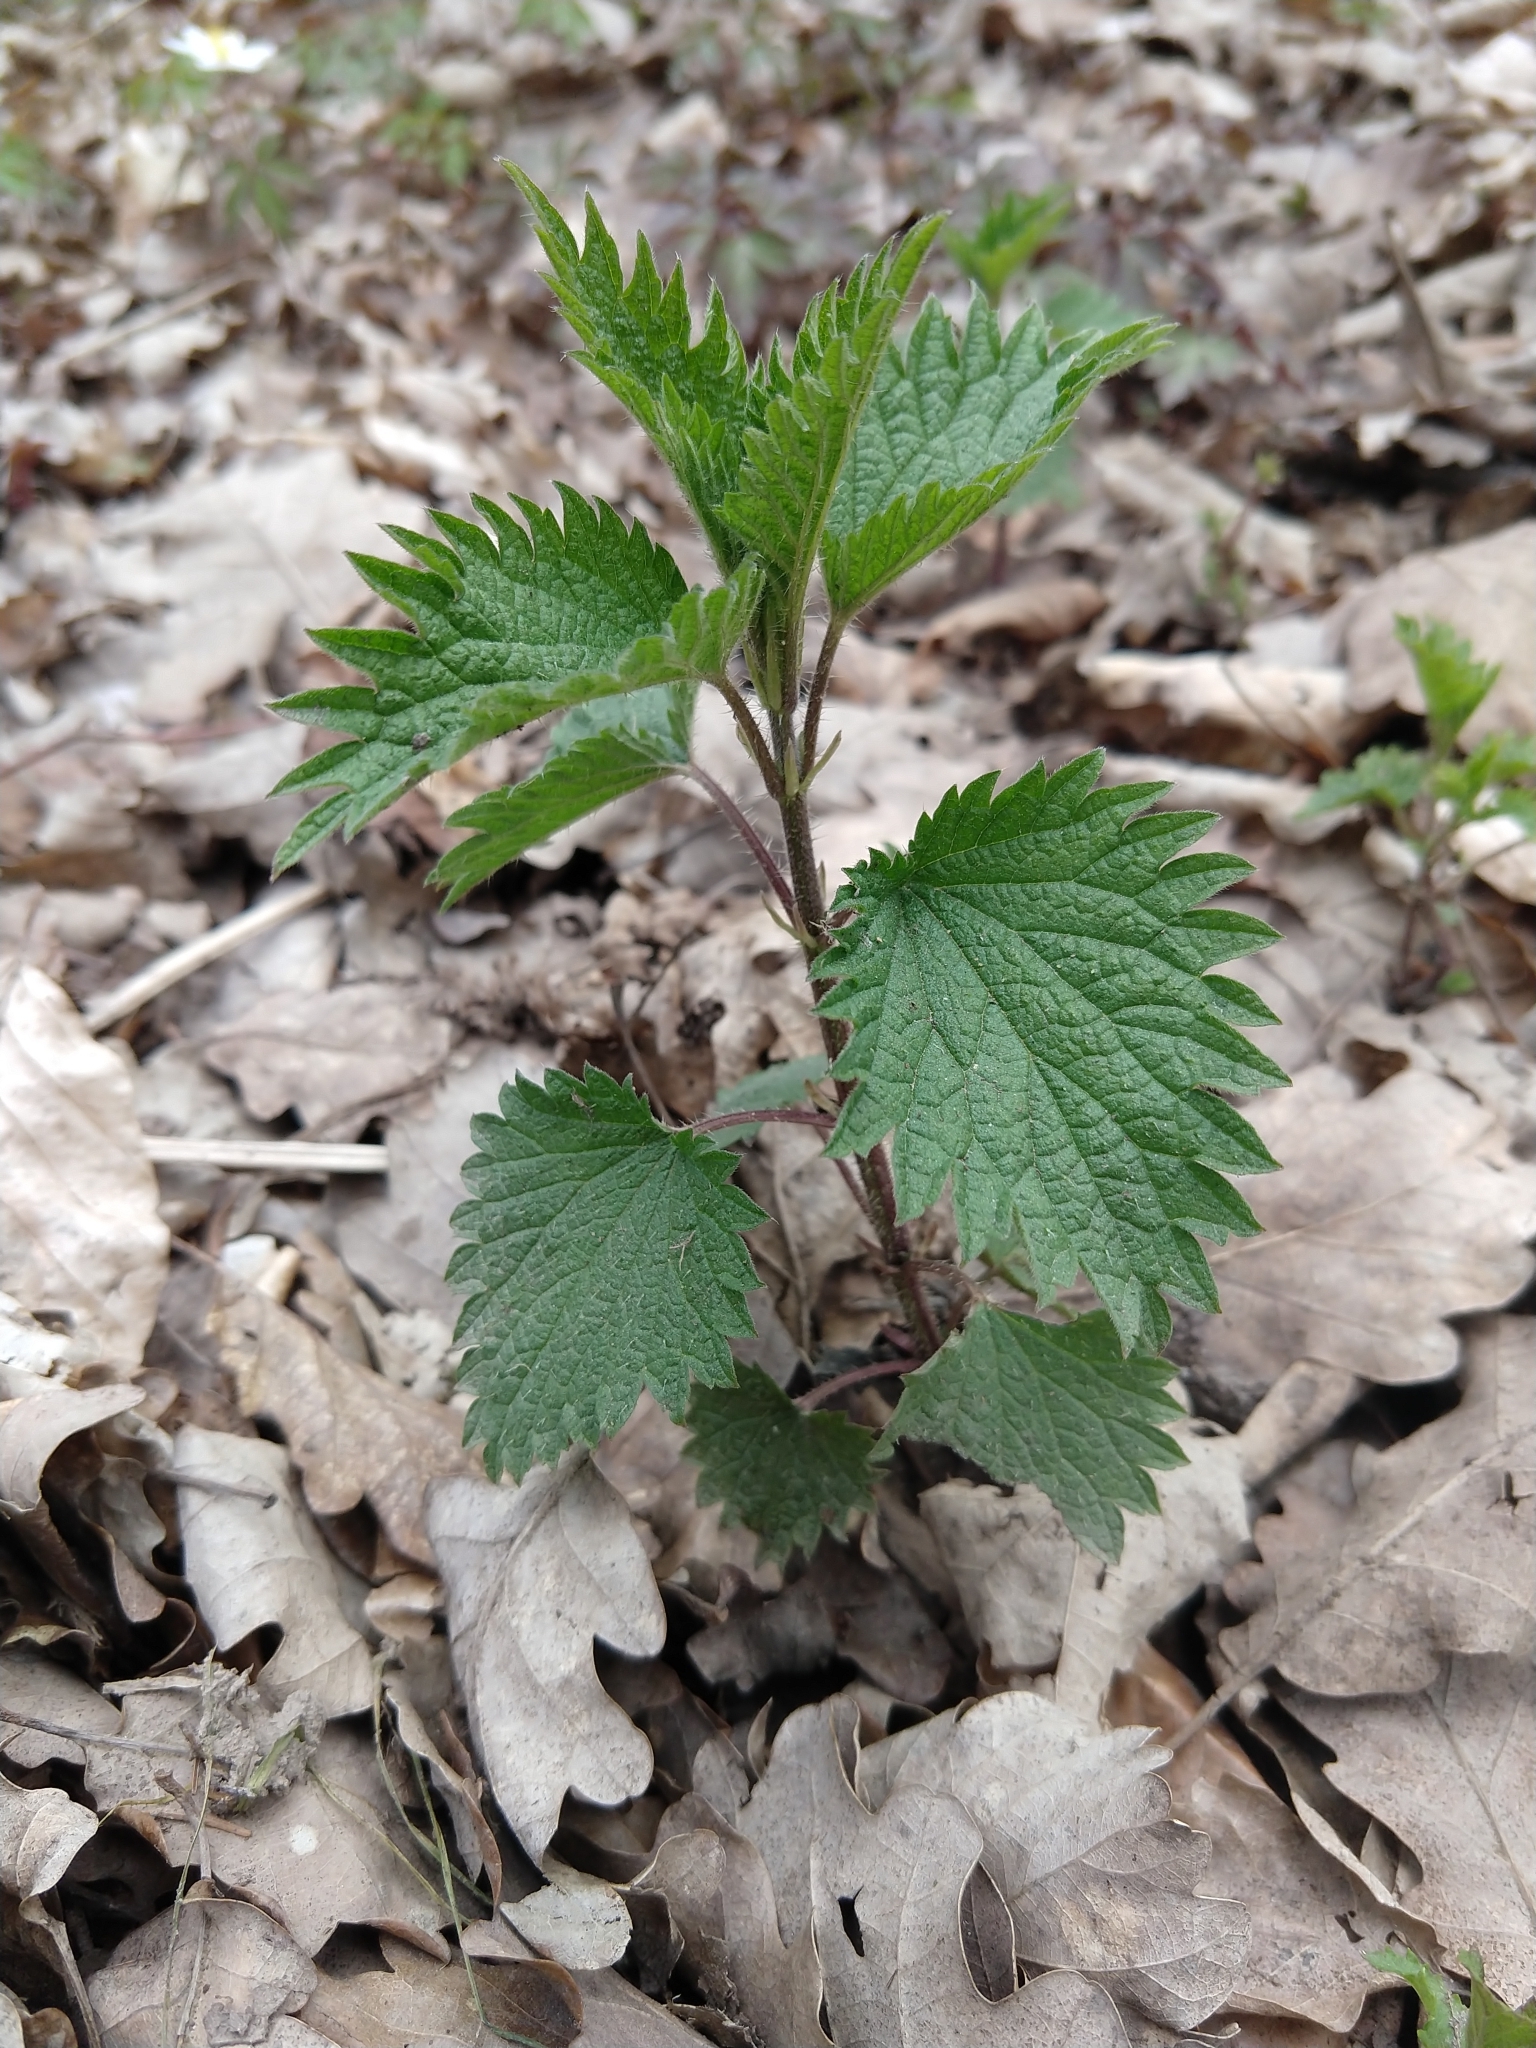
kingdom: Plantae
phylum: Tracheophyta
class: Magnoliopsida
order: Rosales
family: Urticaceae
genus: Urtica
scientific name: Urtica dioica
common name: Common nettle
